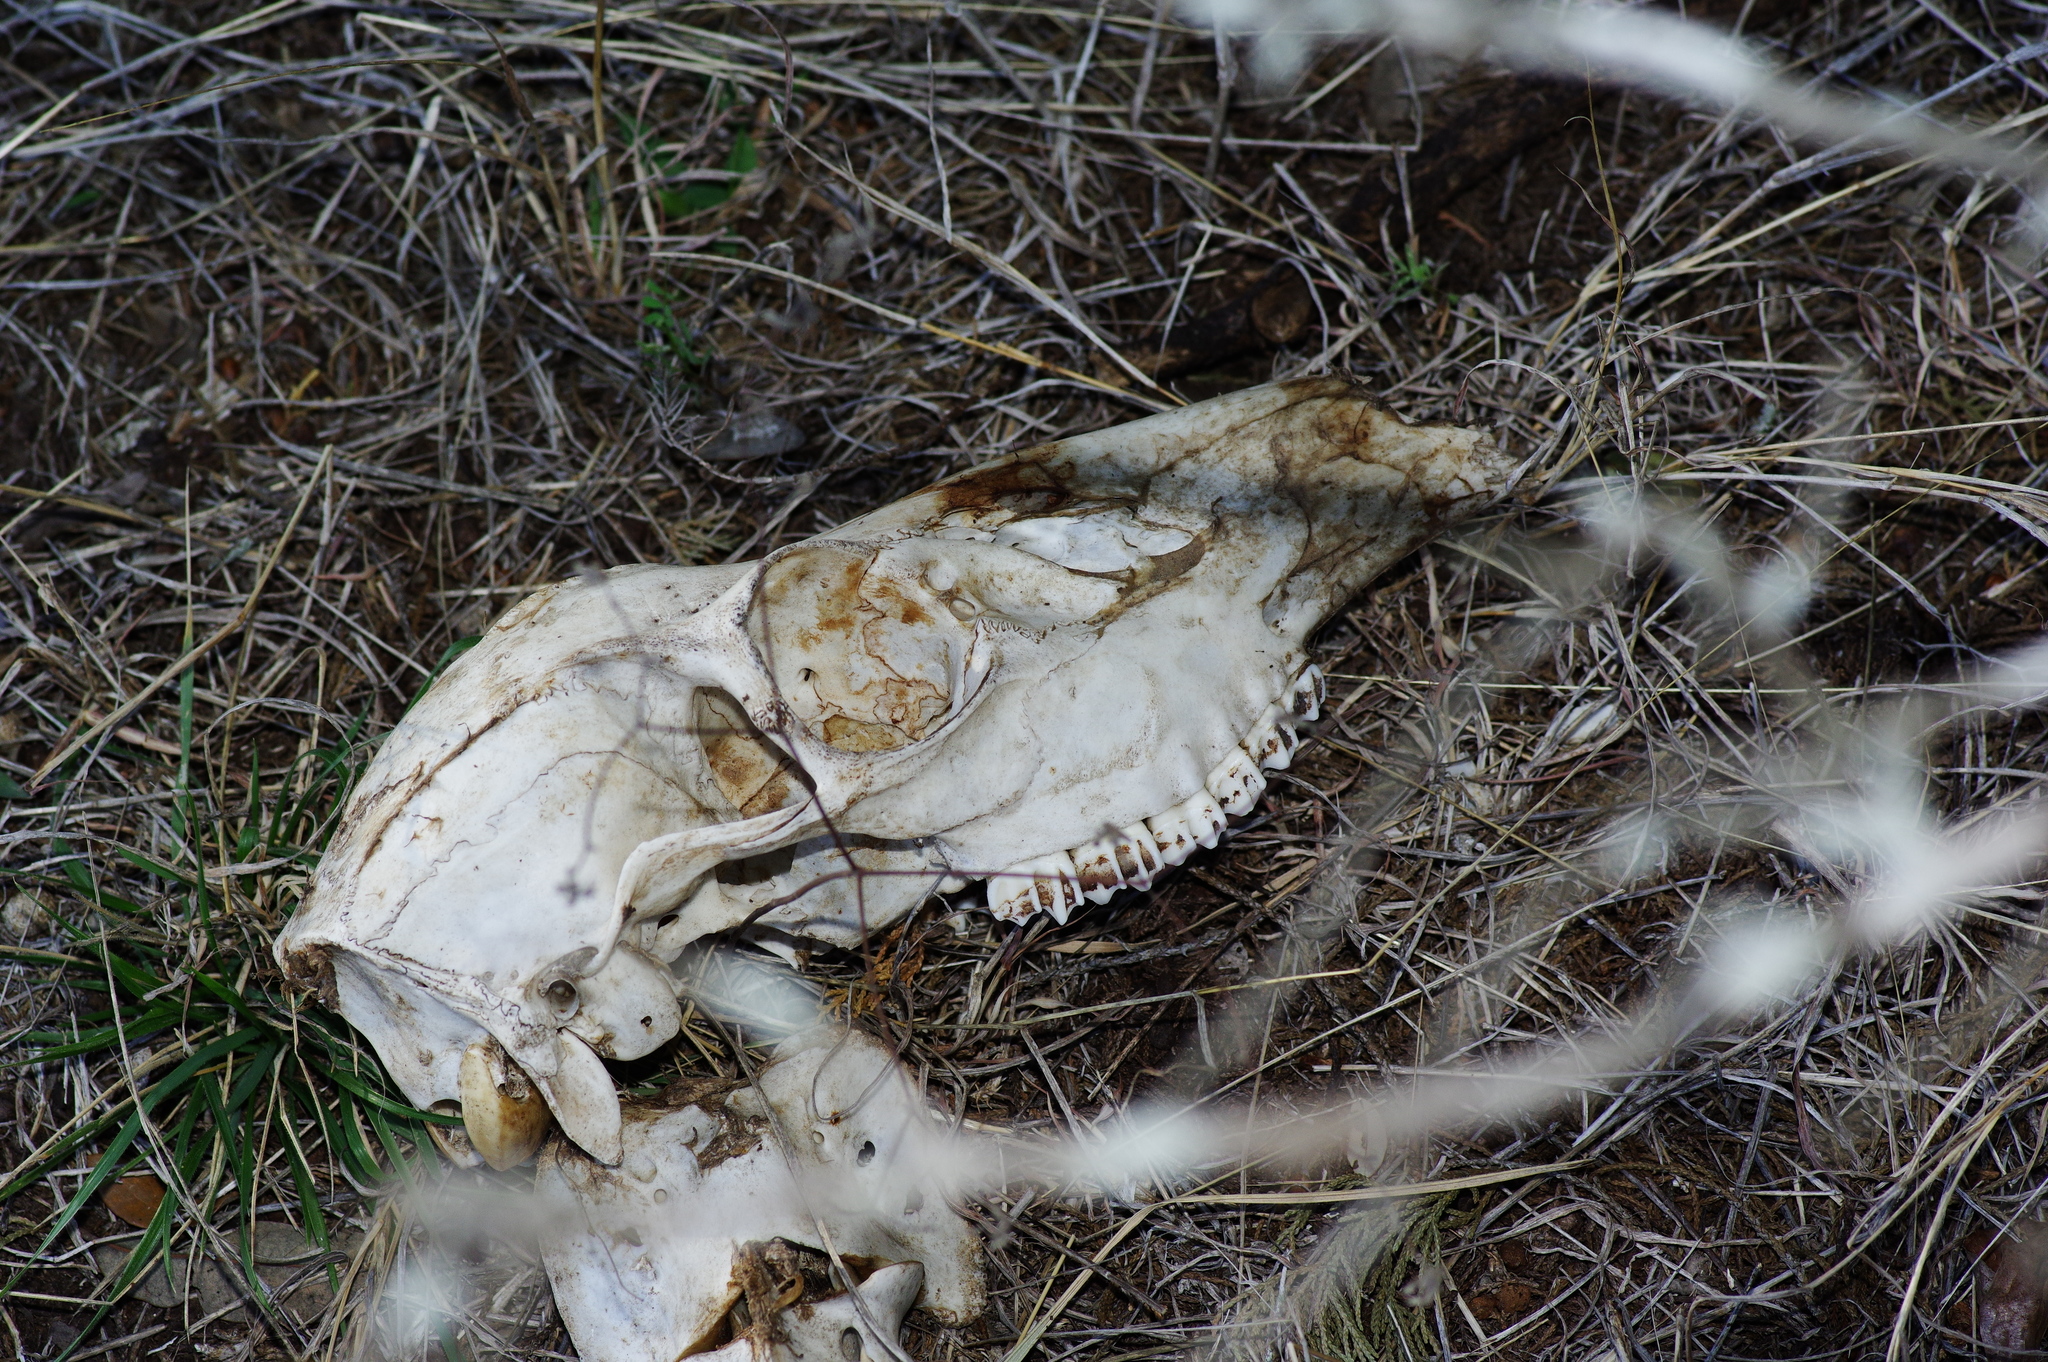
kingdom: Animalia
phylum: Chordata
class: Mammalia
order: Artiodactyla
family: Cervidae
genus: Odocoileus
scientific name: Odocoileus virginianus
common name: White-tailed deer
